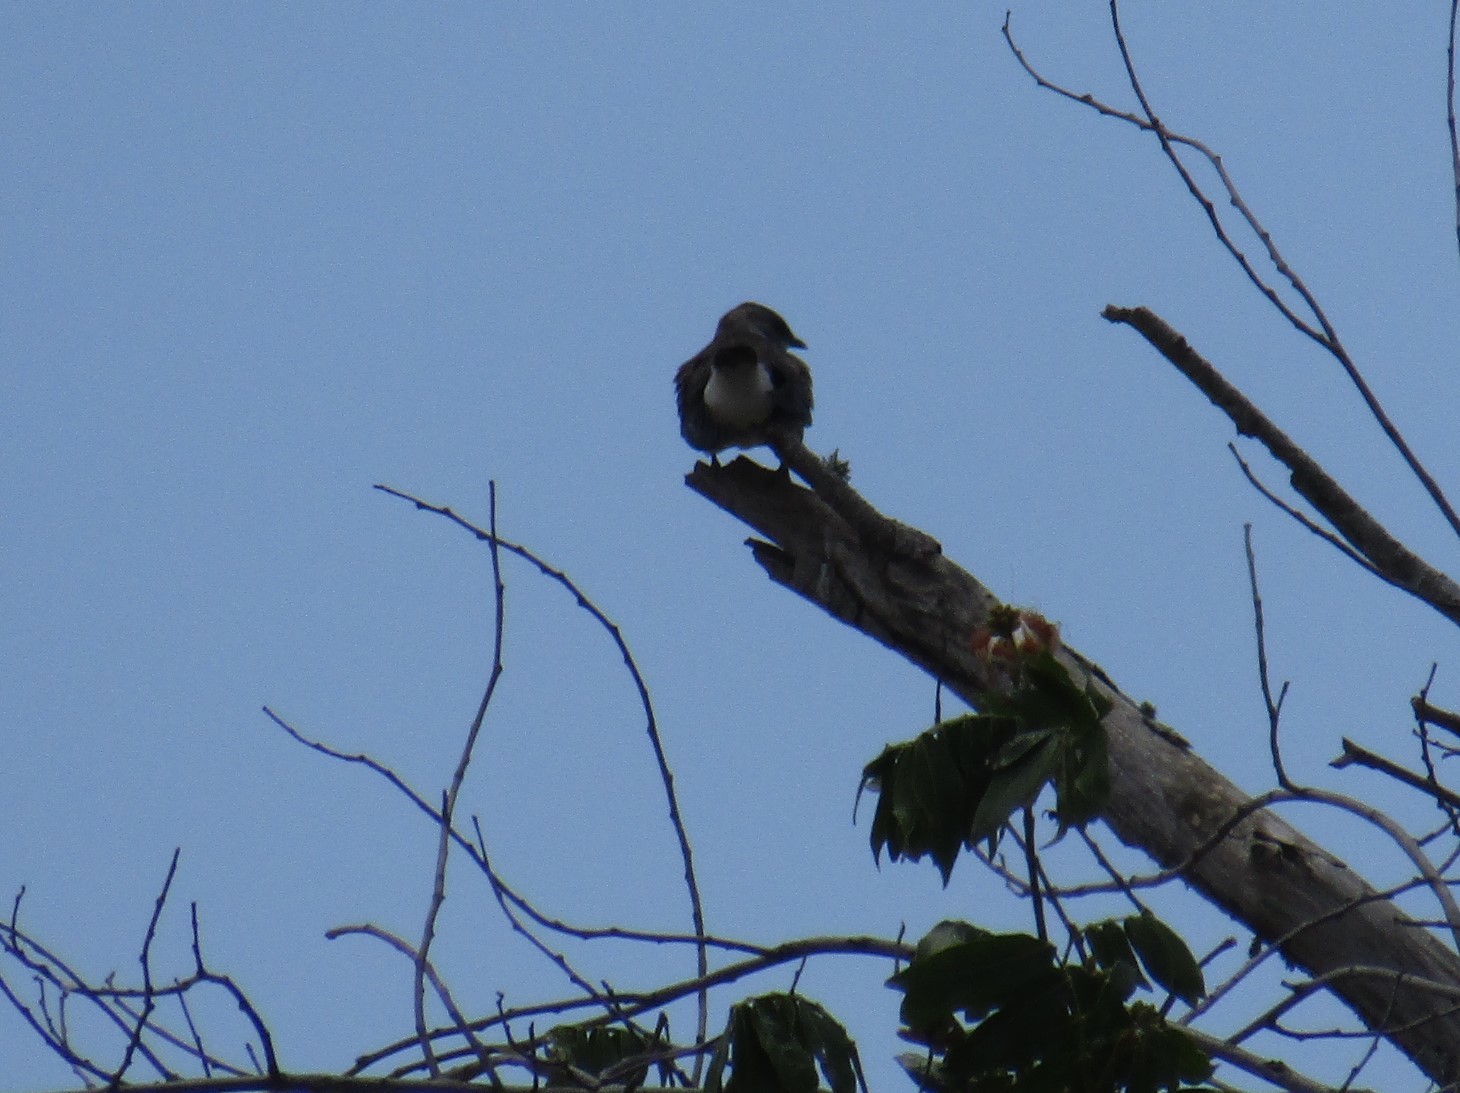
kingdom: Animalia
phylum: Chordata
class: Aves
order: Passeriformes
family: Hirundinidae
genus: Progne
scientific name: Progne tapera
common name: Brown-chested martin
